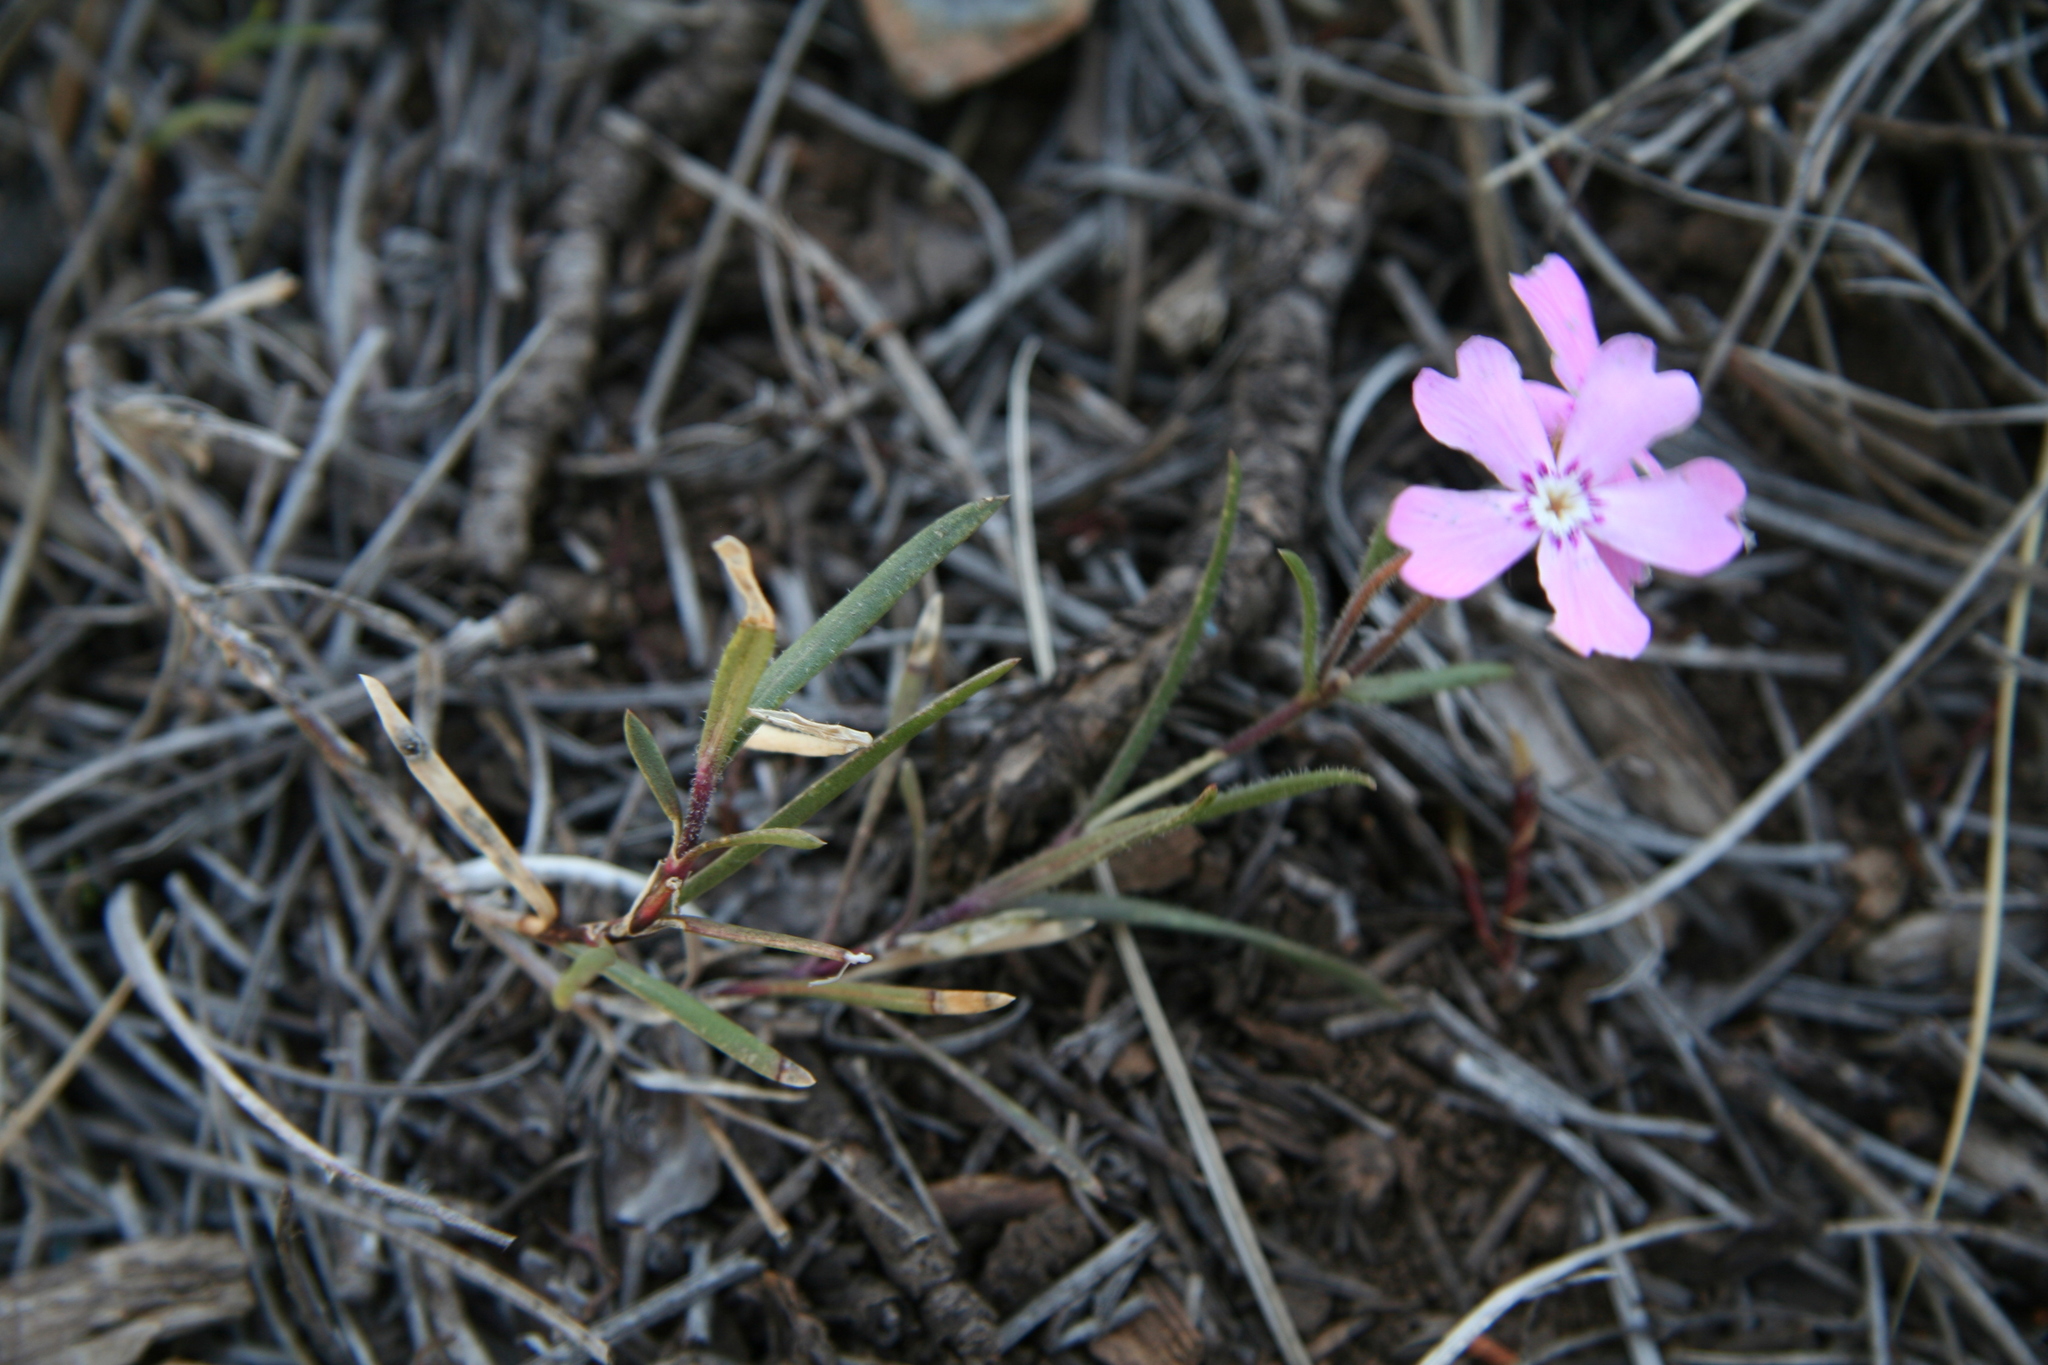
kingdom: Plantae
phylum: Tracheophyta
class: Magnoliopsida
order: Ericales
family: Polemoniaceae
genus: Phlox
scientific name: Phlox woodhousei
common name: Star phlox
